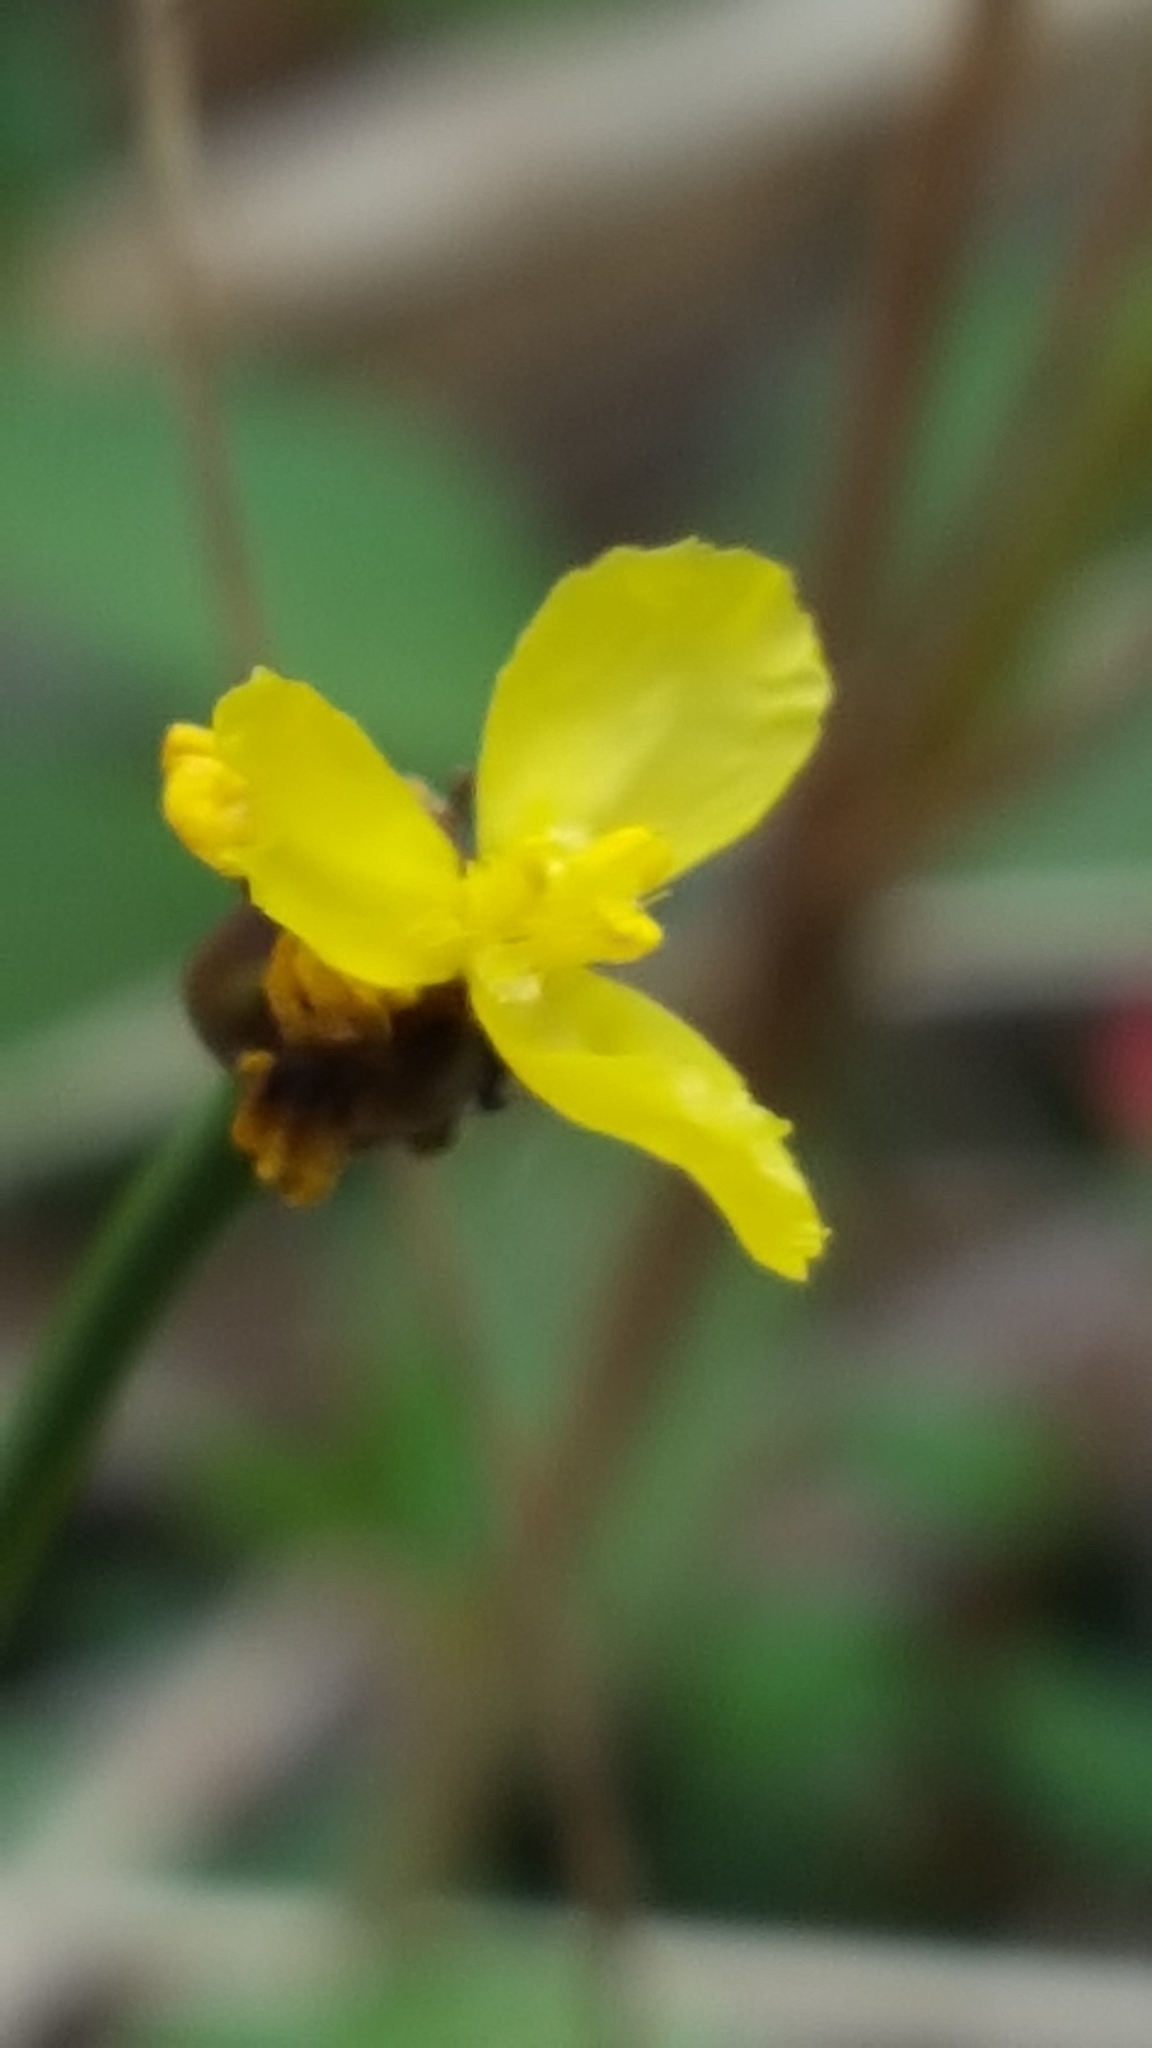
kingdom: Plantae
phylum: Tracheophyta
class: Liliopsida
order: Poales
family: Xyridaceae
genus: Xyris
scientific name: Xyris montana
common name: Northern yellow-eyed-grass
